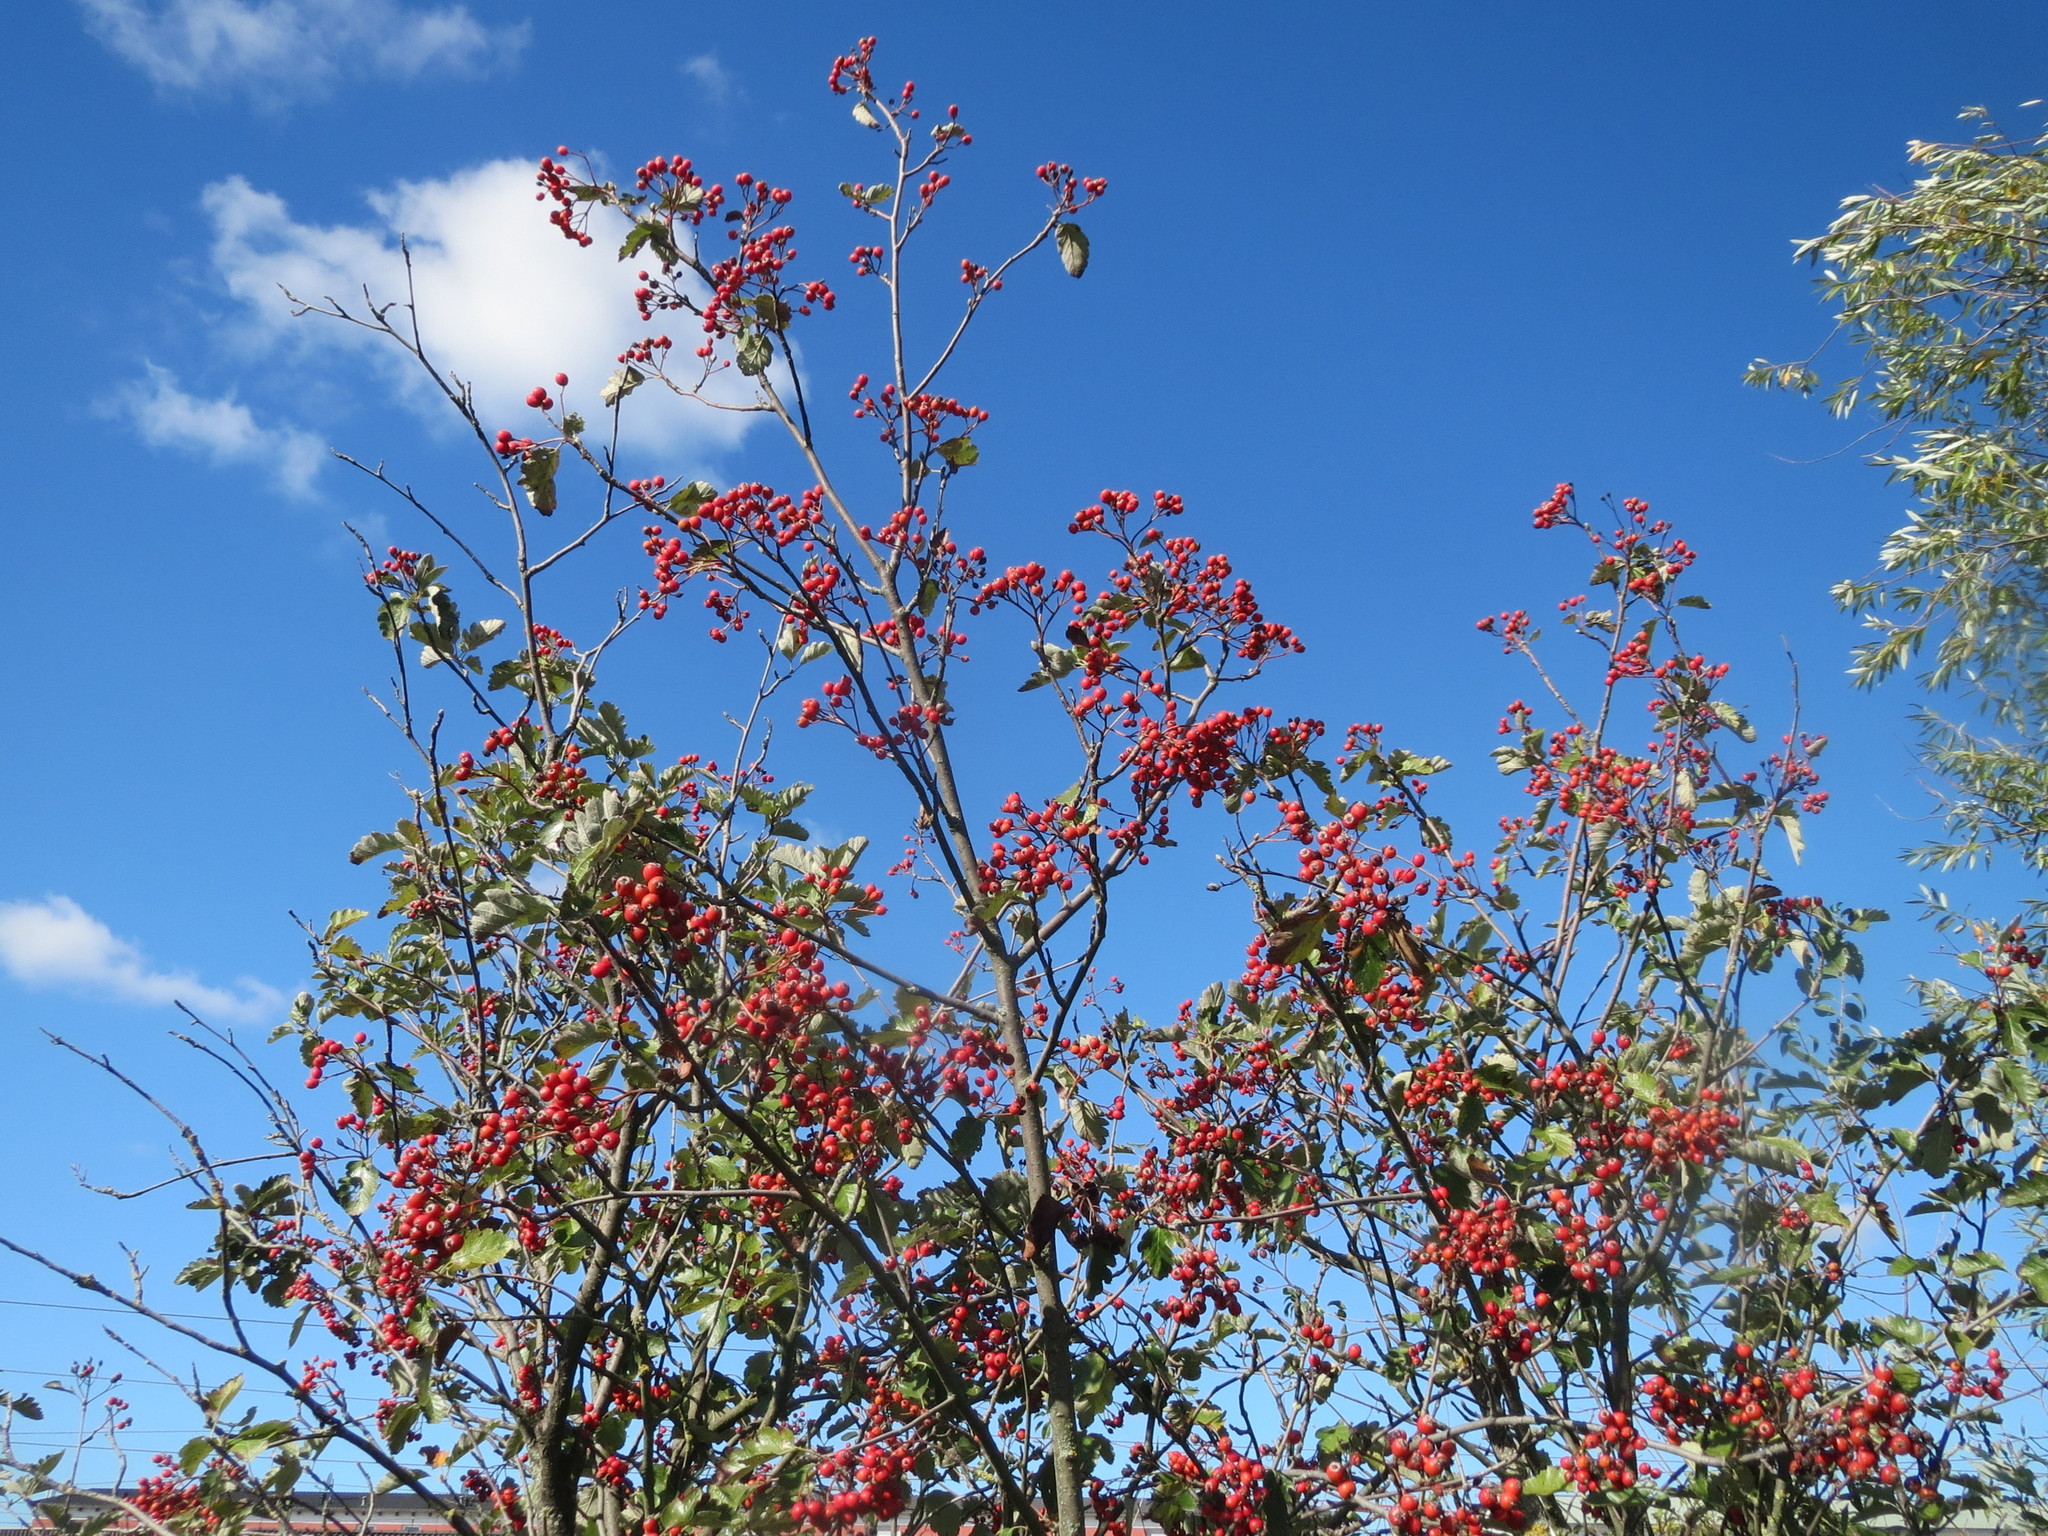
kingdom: Plantae
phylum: Tracheophyta
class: Magnoliopsida
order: Rosales
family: Rosaceae
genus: Scandosorbus
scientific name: Scandosorbus intermedia
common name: Swedish whitebeam
